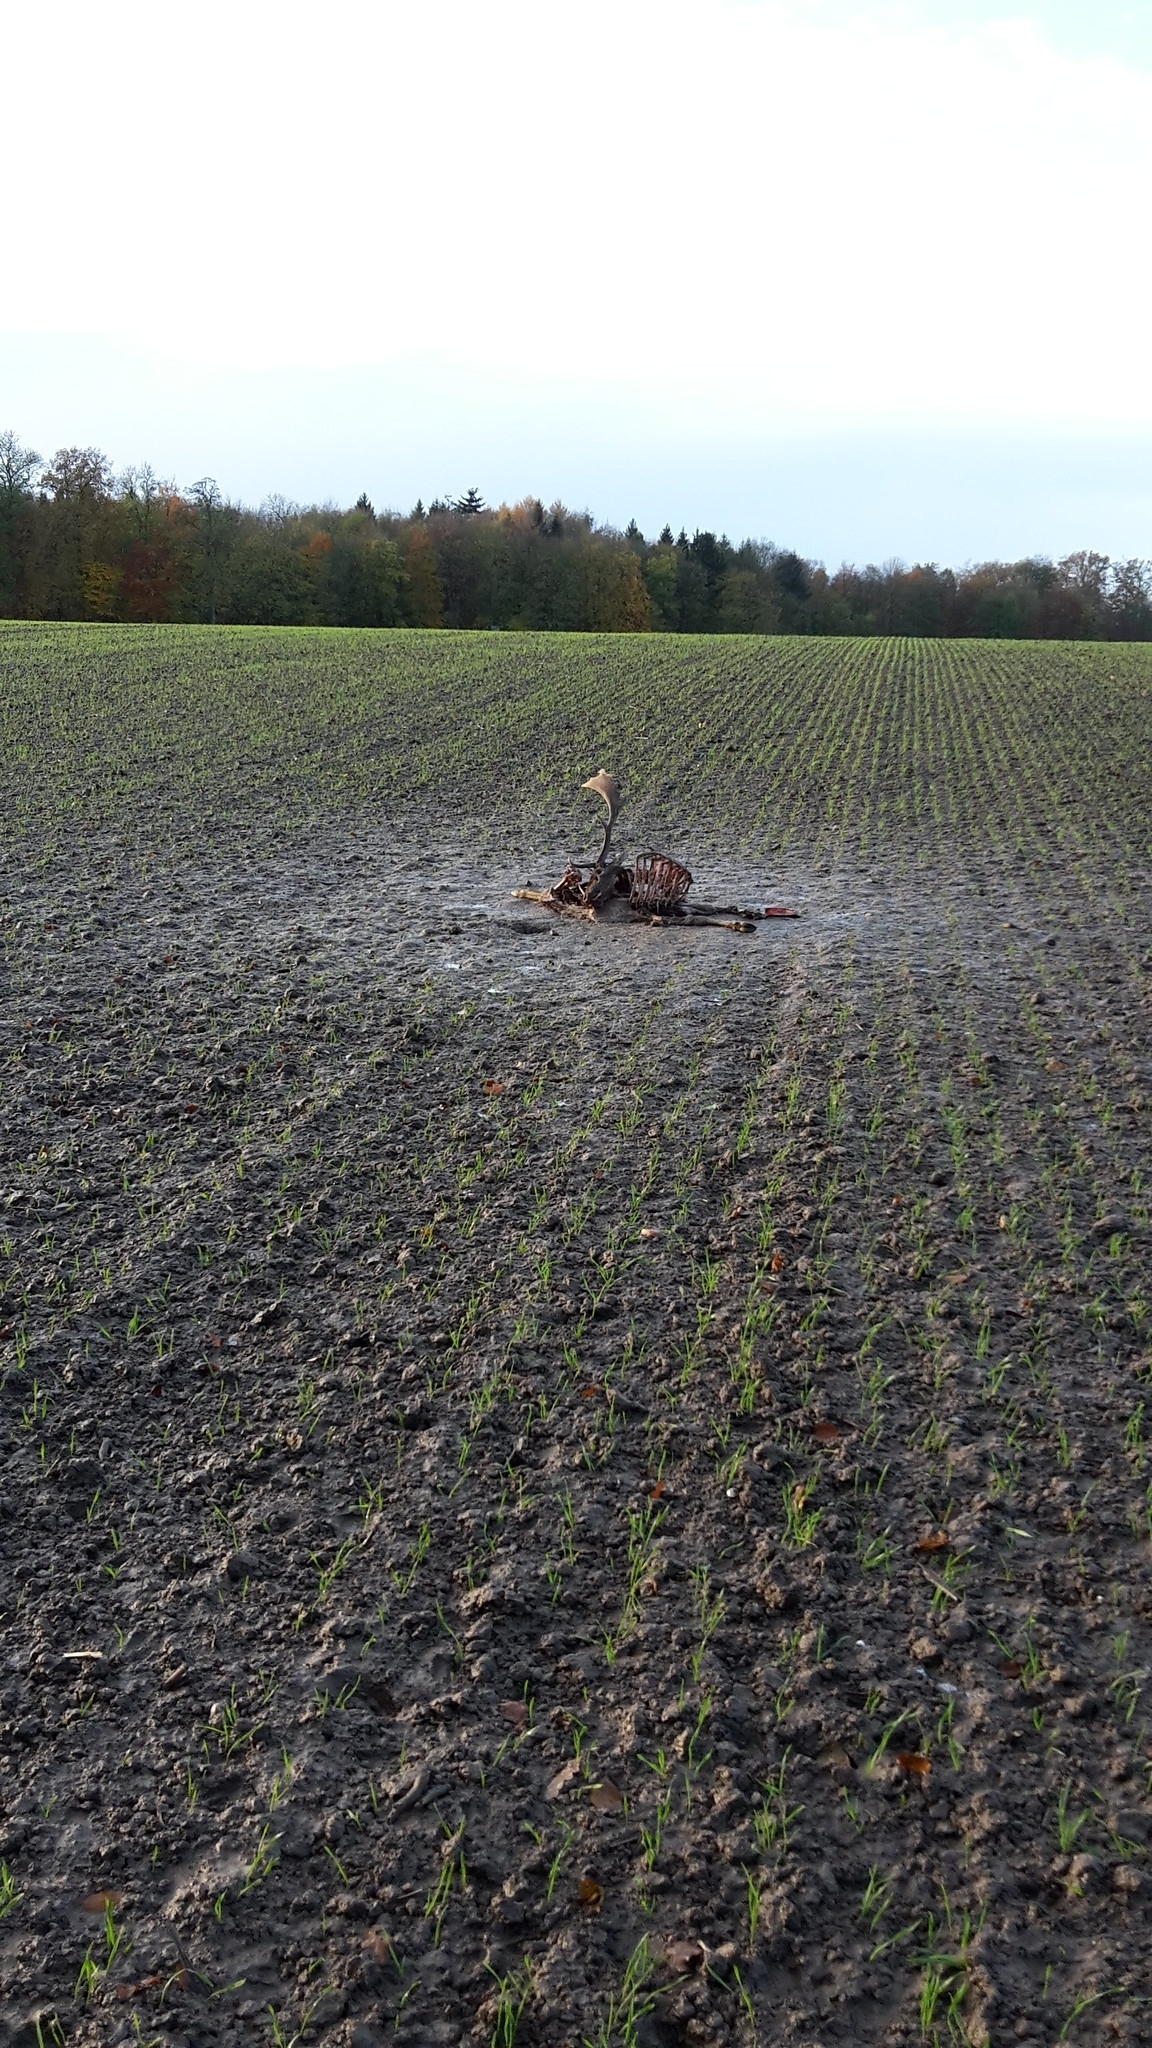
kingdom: Animalia
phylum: Chordata
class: Mammalia
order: Artiodactyla
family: Cervidae
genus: Dama
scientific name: Dama dama
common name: Fallow deer
